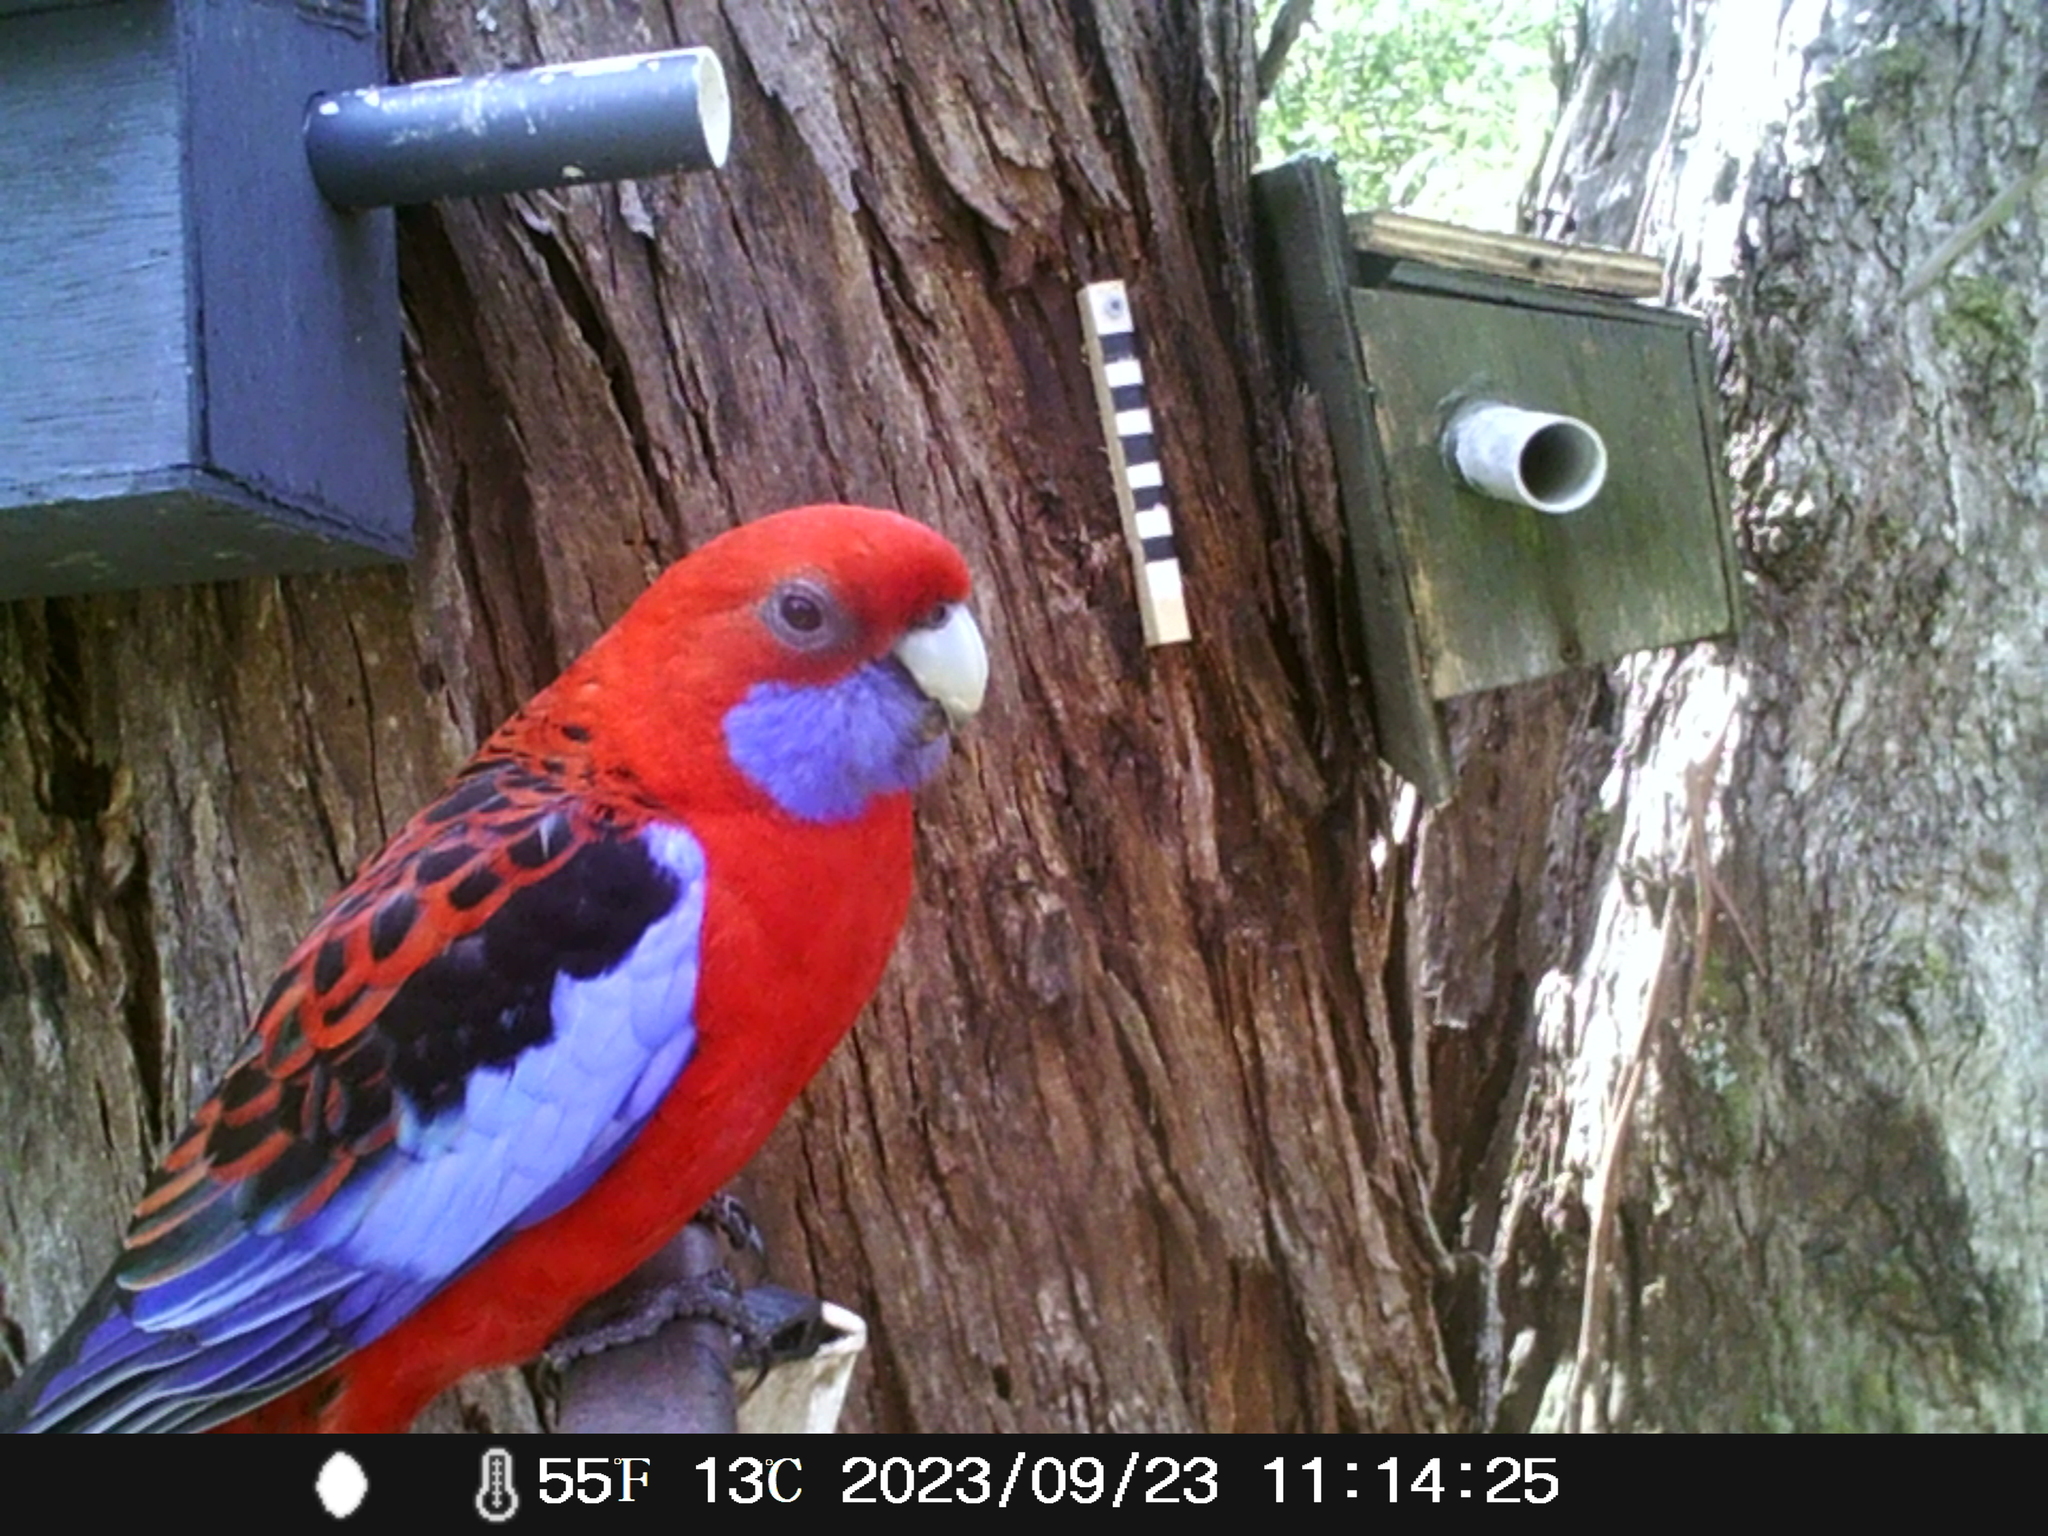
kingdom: Animalia
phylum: Chordata
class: Aves
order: Psittaciformes
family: Psittacidae
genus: Platycercus
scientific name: Platycercus elegans
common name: Crimson rosella
